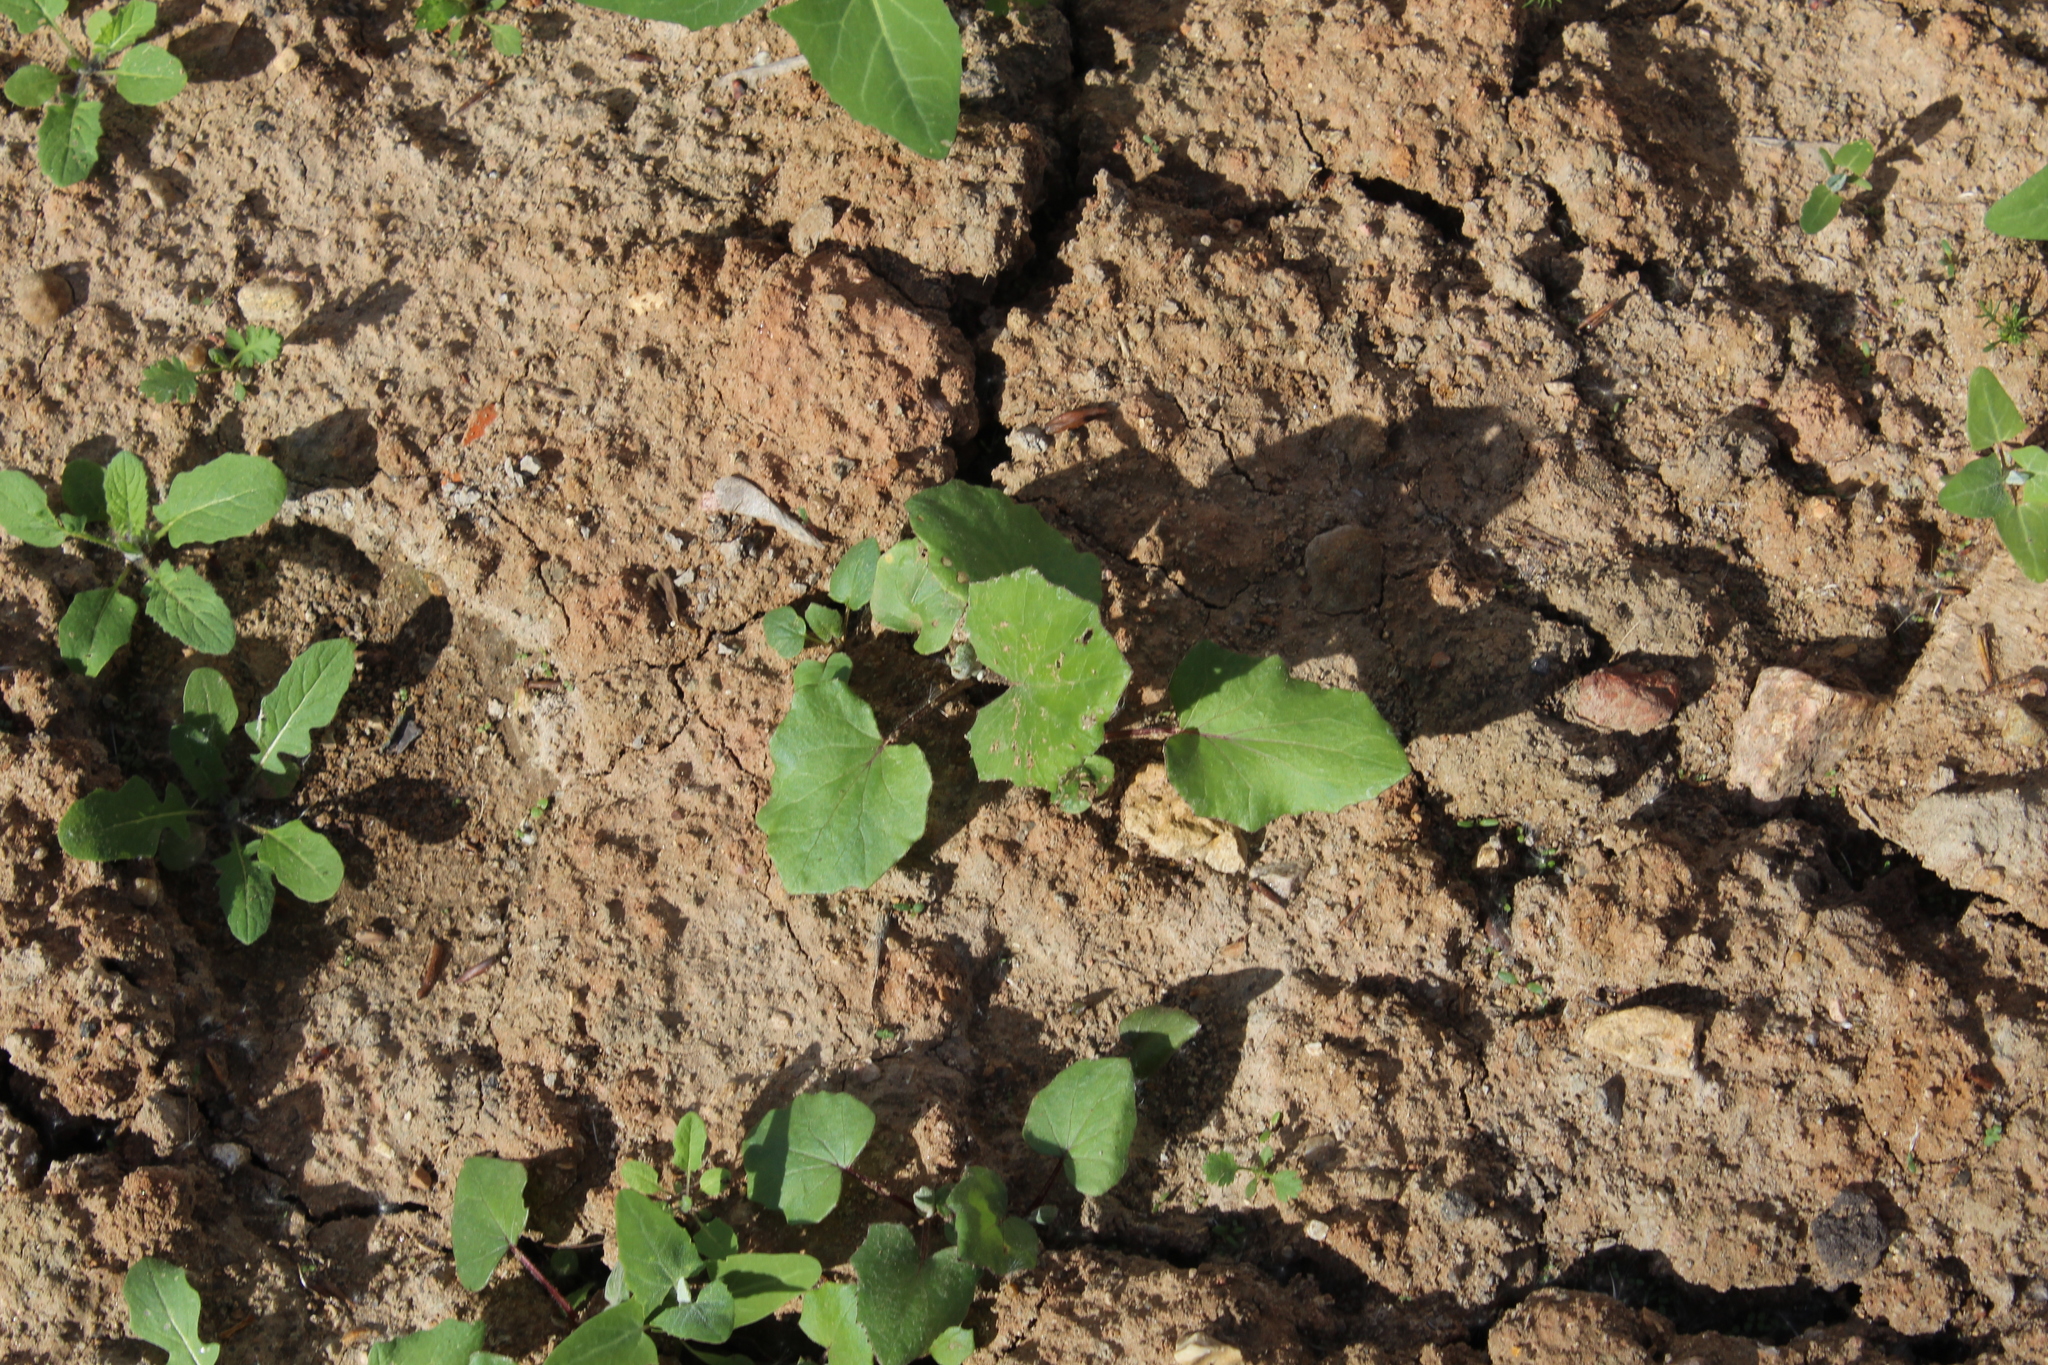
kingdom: Plantae
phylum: Tracheophyta
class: Magnoliopsida
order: Asterales
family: Asteraceae
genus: Tussilago
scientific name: Tussilago farfara
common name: Coltsfoot
